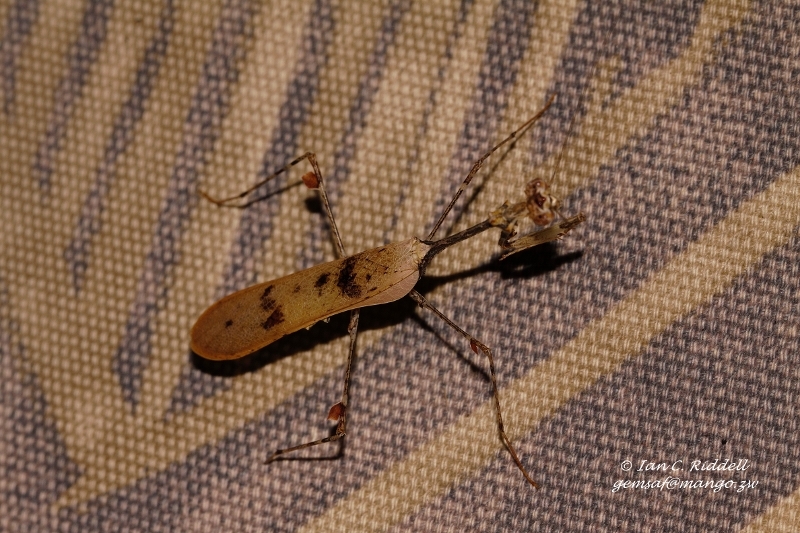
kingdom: Animalia
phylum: Arthropoda
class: Insecta
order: Mantodea
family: Hymenopodidae
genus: Sibylla
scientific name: Sibylla pretiosa
